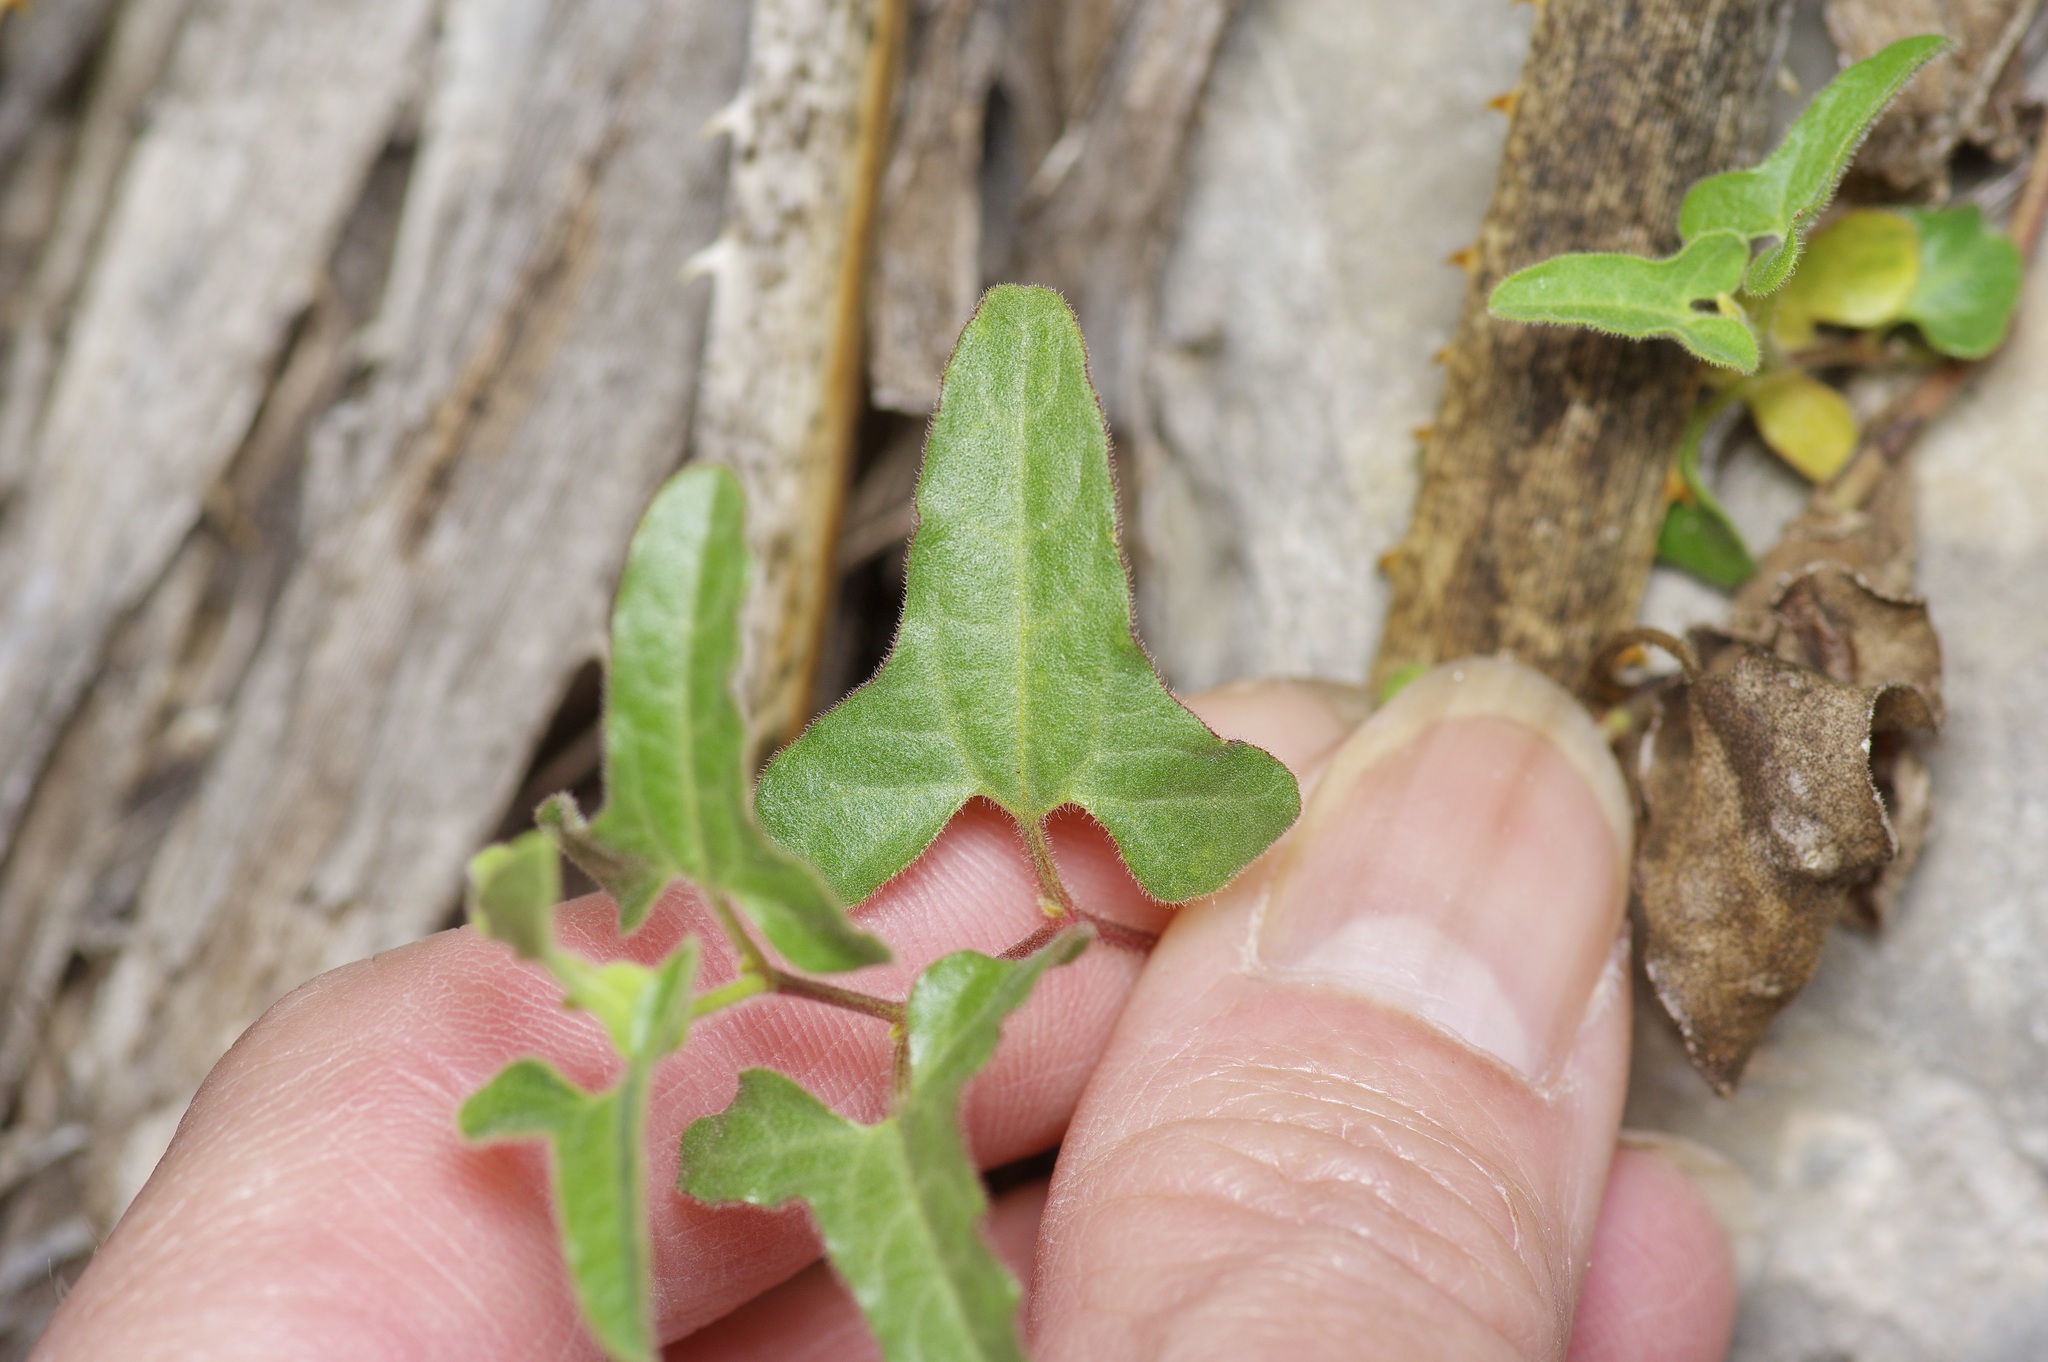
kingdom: Plantae
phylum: Tracheophyta
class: Magnoliopsida
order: Piperales
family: Aristolochiaceae
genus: Aristolochia
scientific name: Aristolochia coryi
